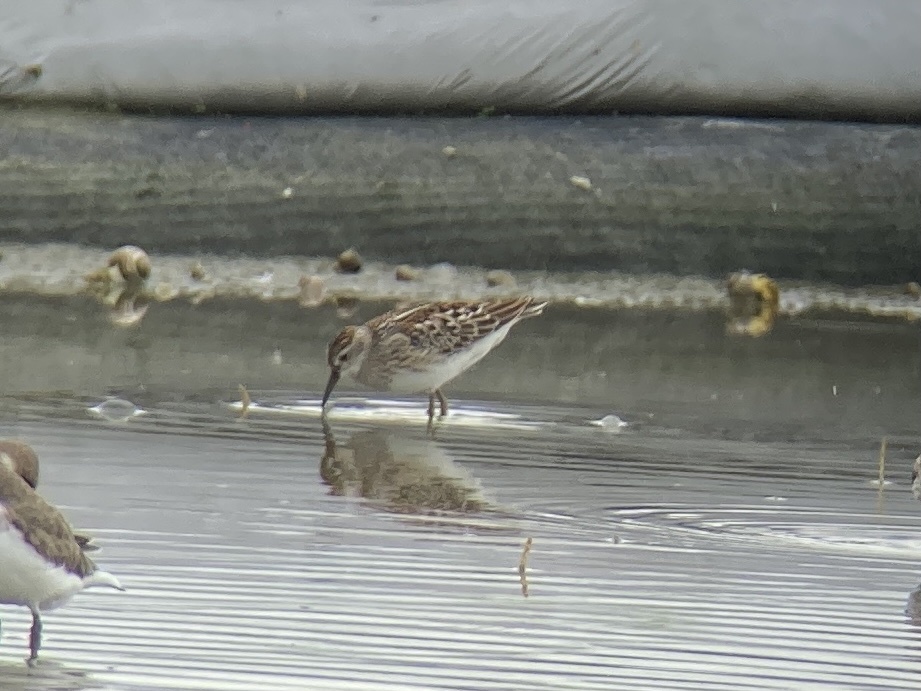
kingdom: Animalia
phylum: Chordata
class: Aves
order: Charadriiformes
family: Scolopacidae
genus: Calidris
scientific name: Calidris acuminata
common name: Sharp-tailed sandpiper
